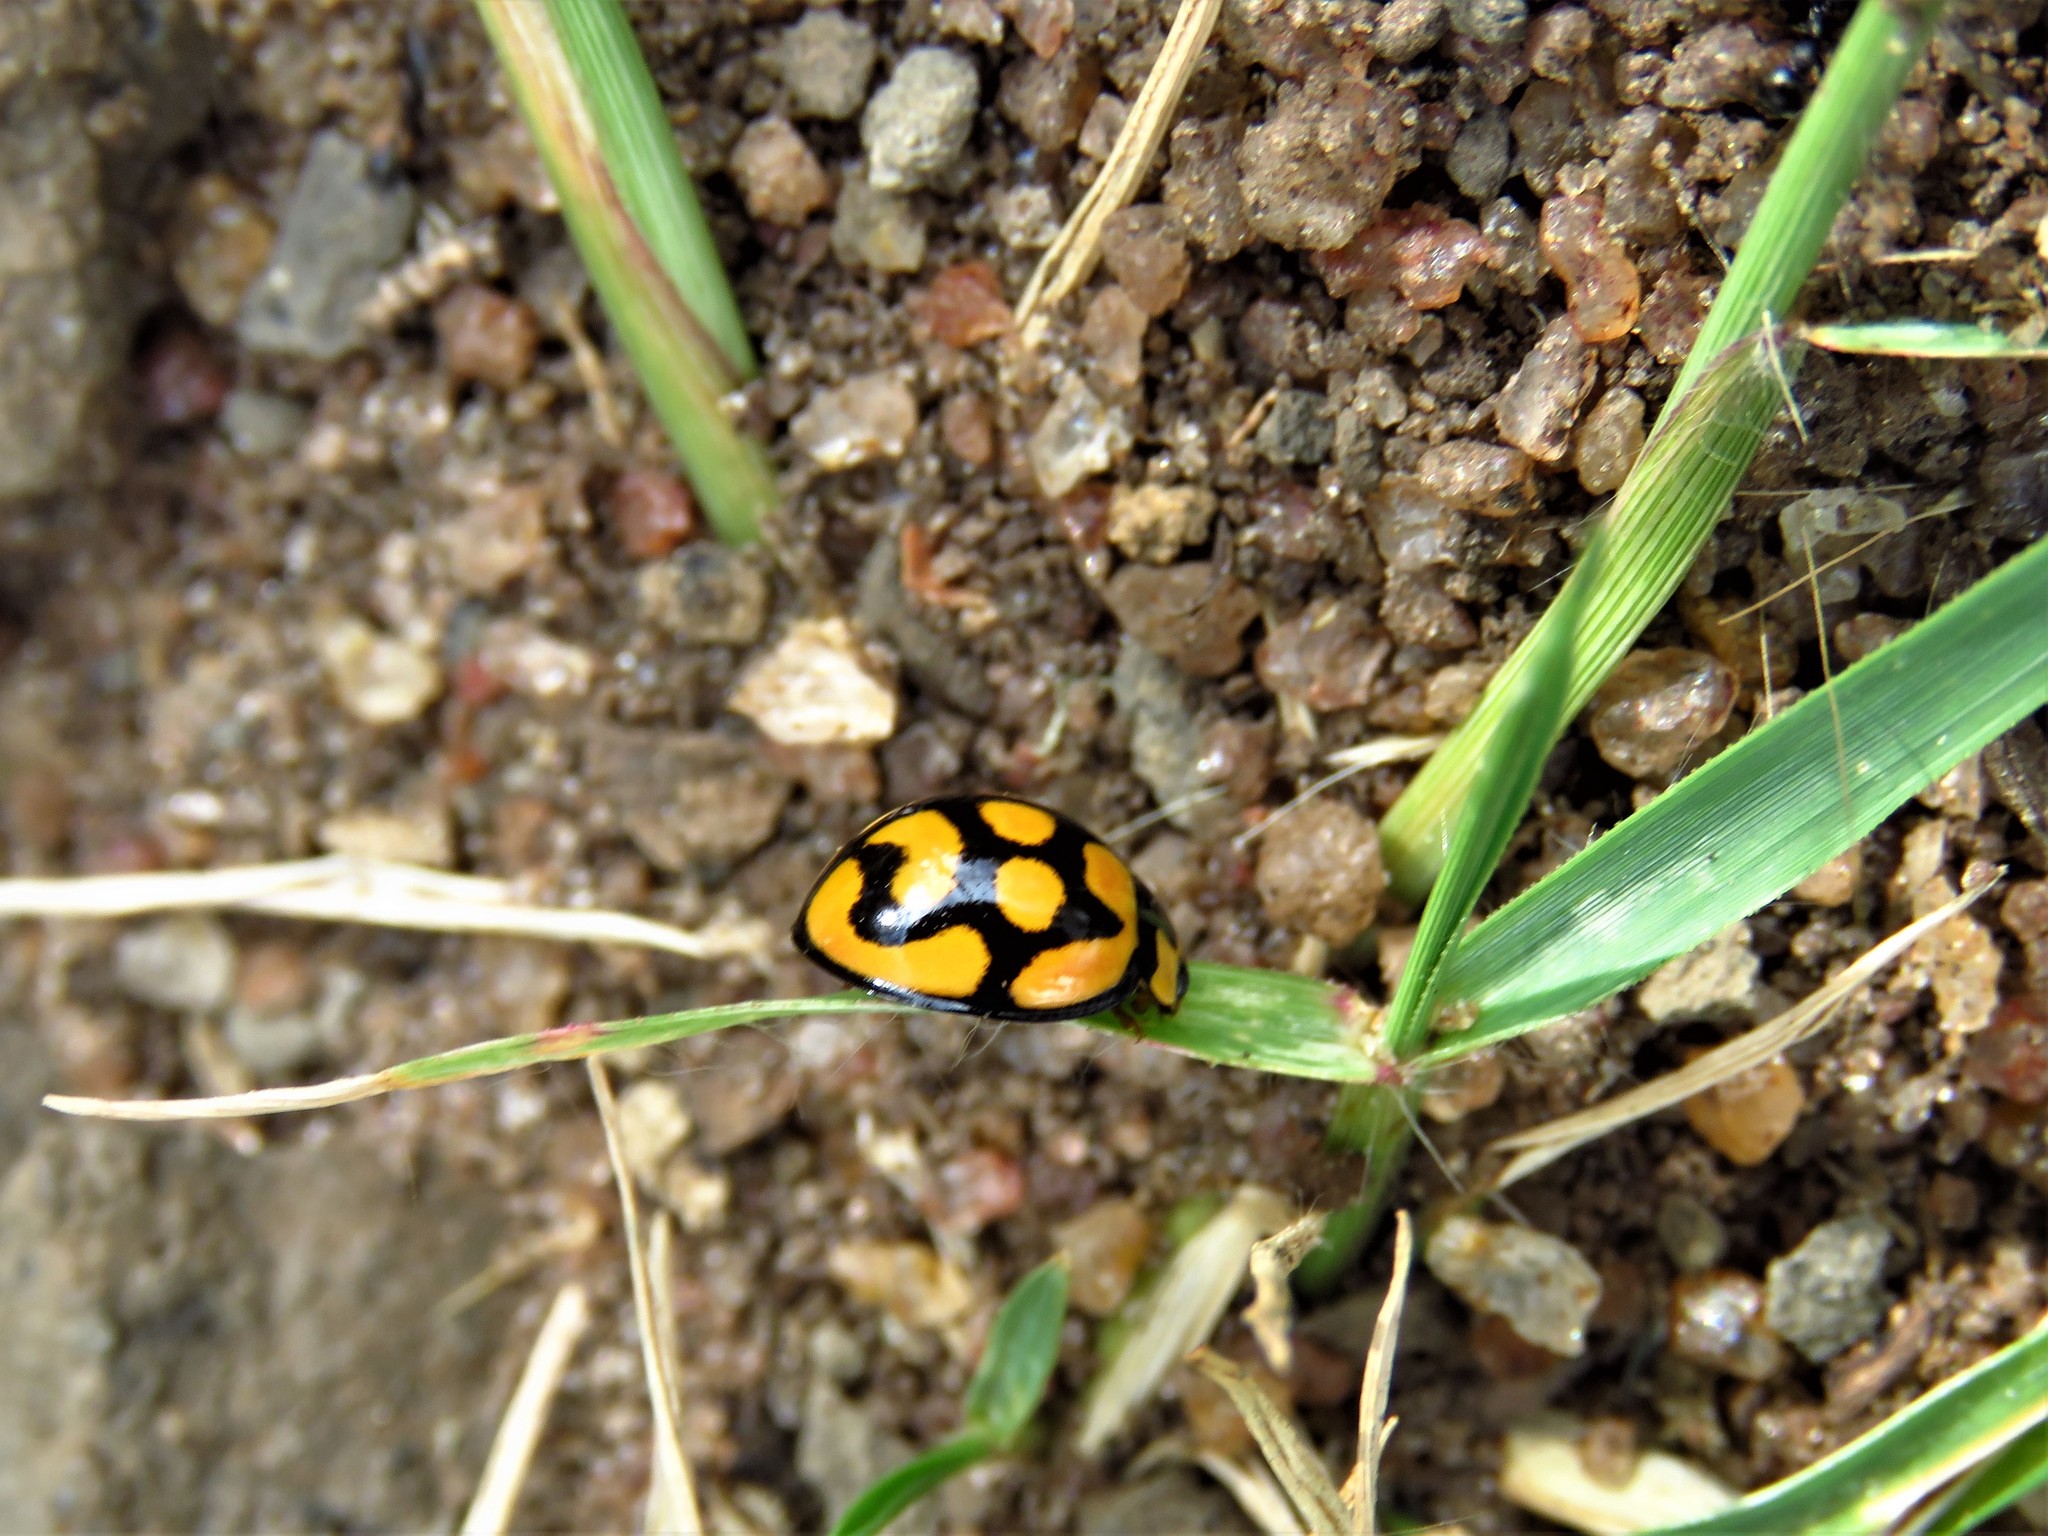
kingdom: Animalia
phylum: Arthropoda
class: Insecta
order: Coleoptera
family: Coccinellidae
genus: Cheilomenes
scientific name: Cheilomenes lunata
